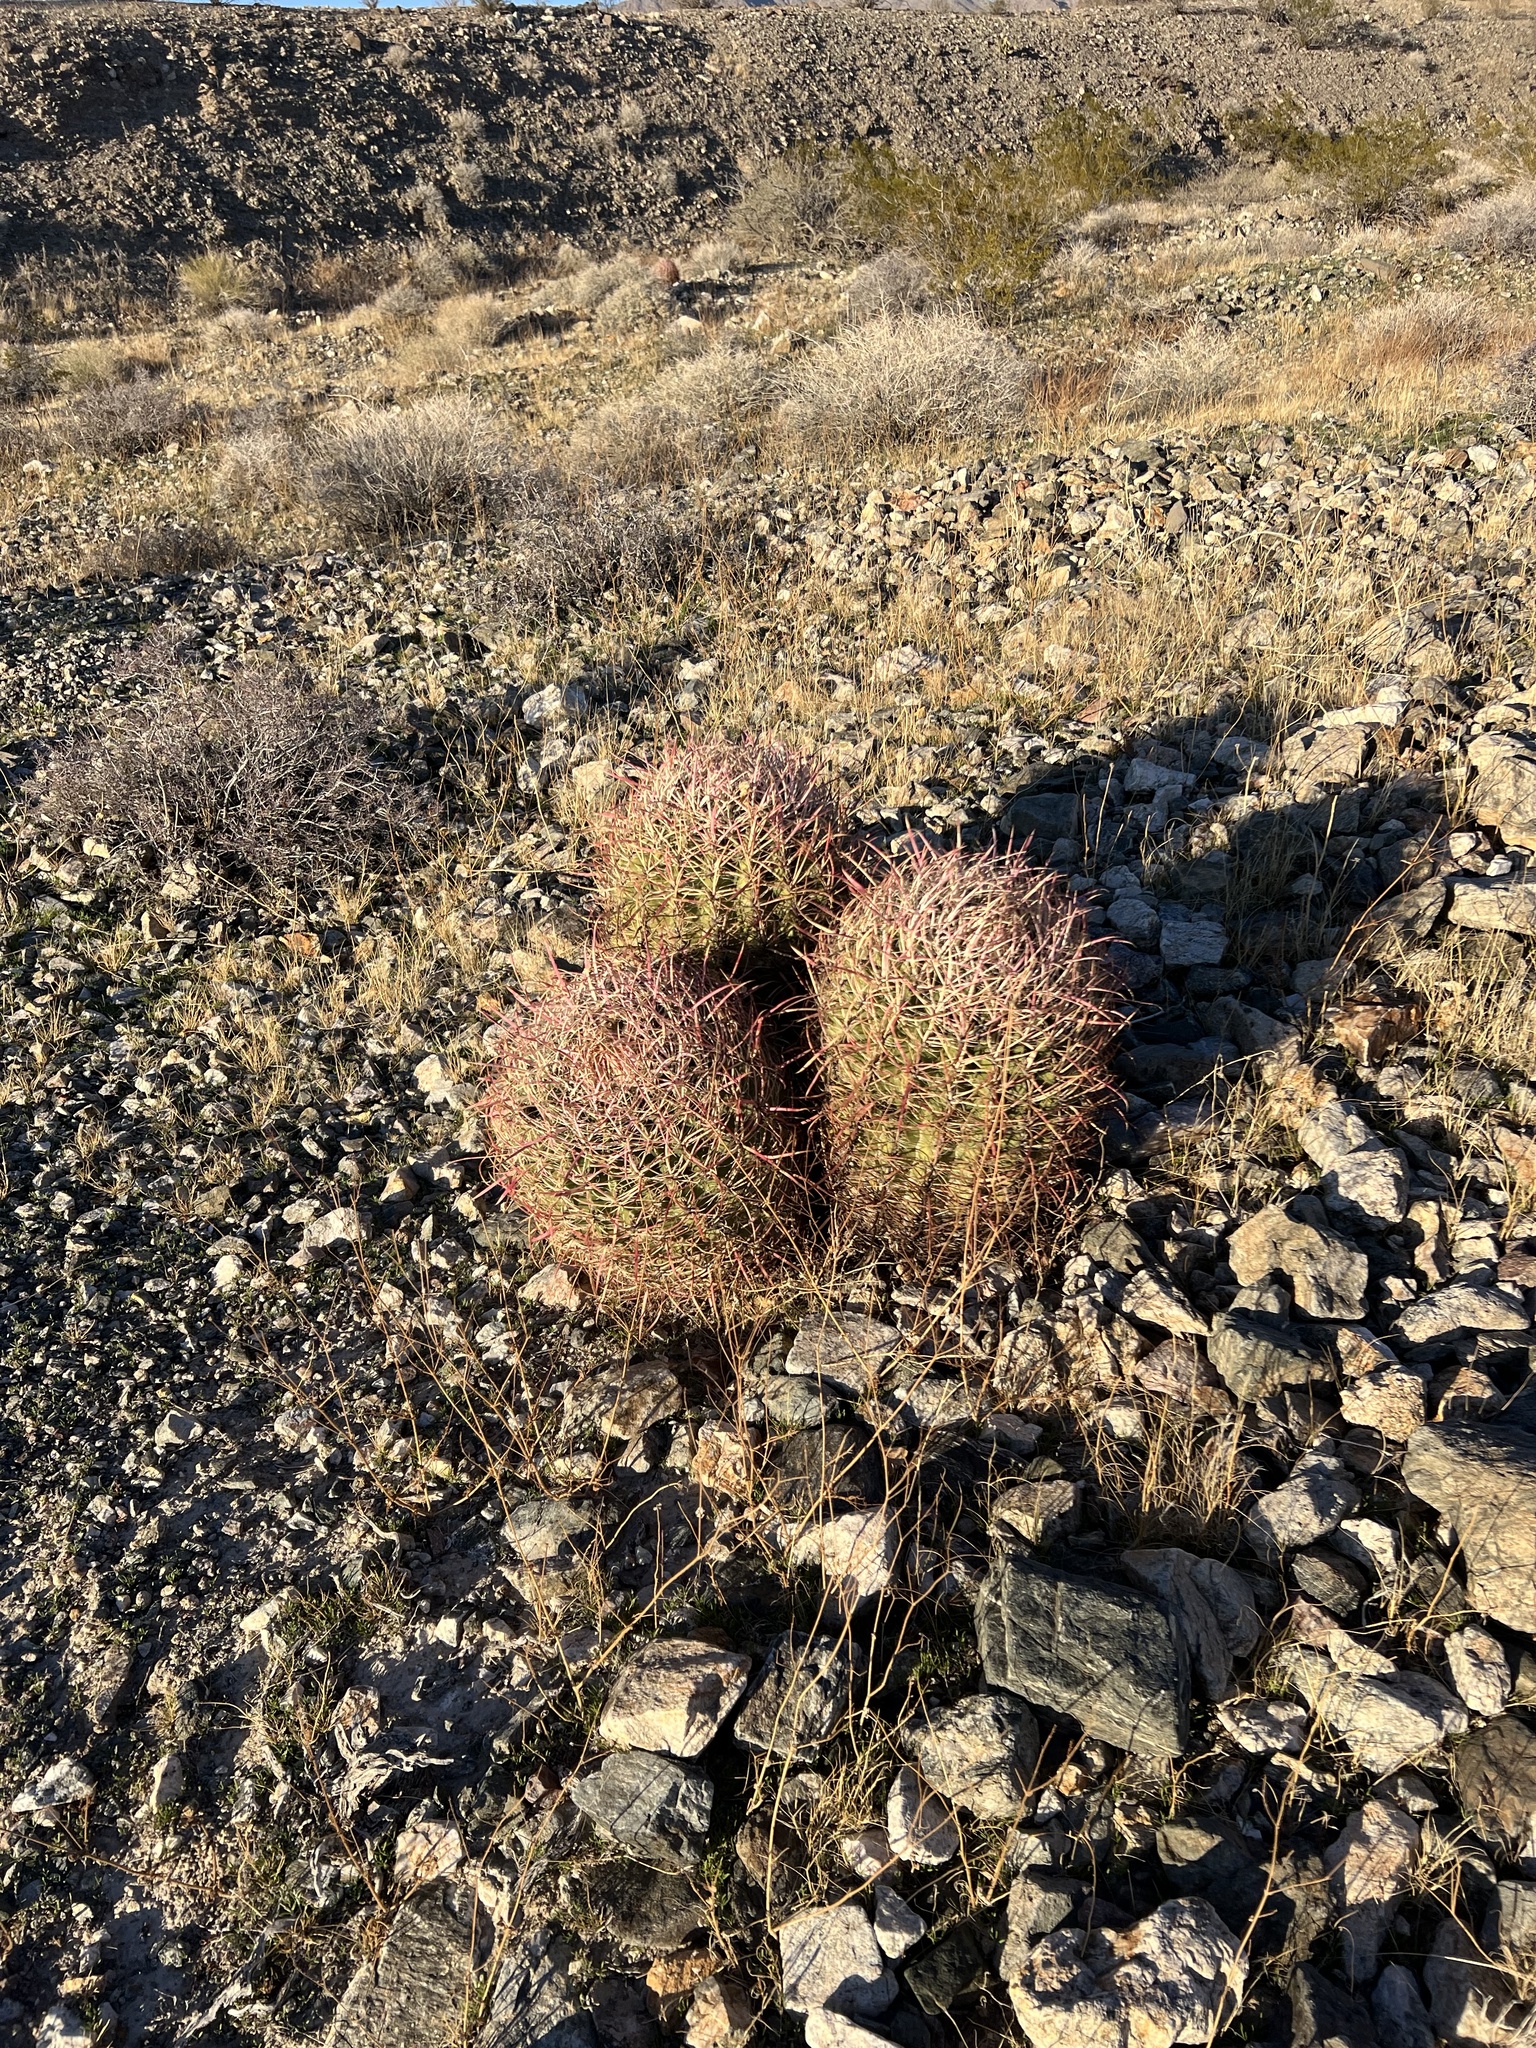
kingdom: Plantae
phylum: Tracheophyta
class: Magnoliopsida
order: Caryophyllales
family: Cactaceae
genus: Ferocactus
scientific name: Ferocactus cylindraceus
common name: California barrel cactus
